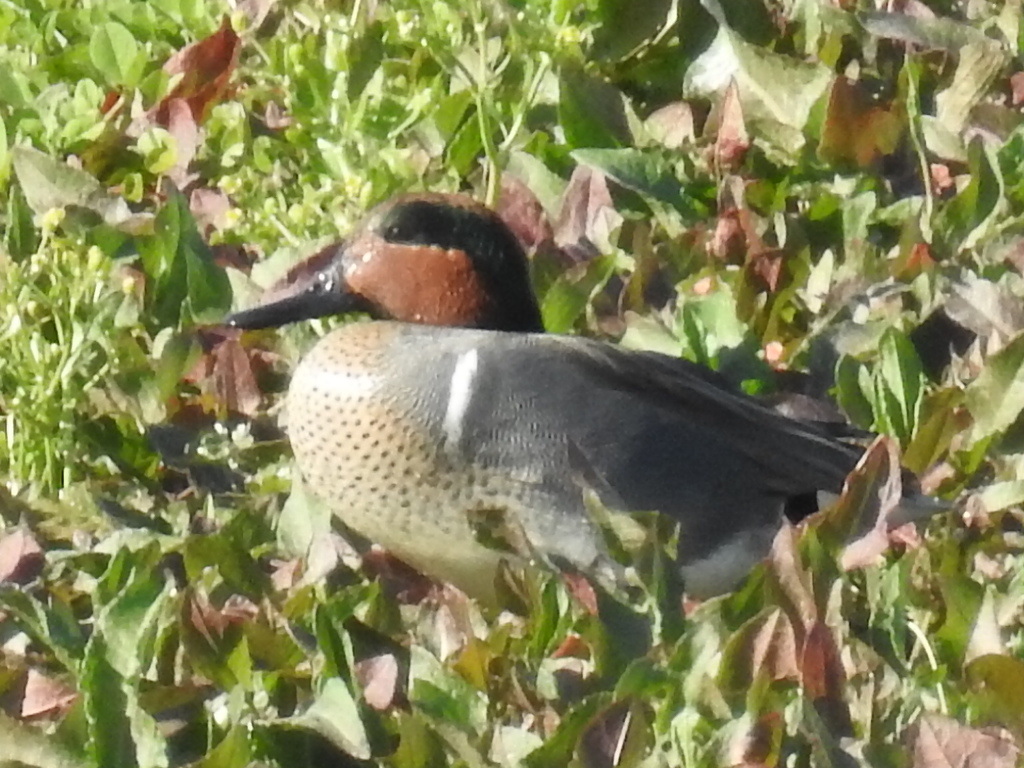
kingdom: Animalia
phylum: Chordata
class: Aves
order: Anseriformes
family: Anatidae
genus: Anas
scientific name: Anas crecca
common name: Eurasian teal
